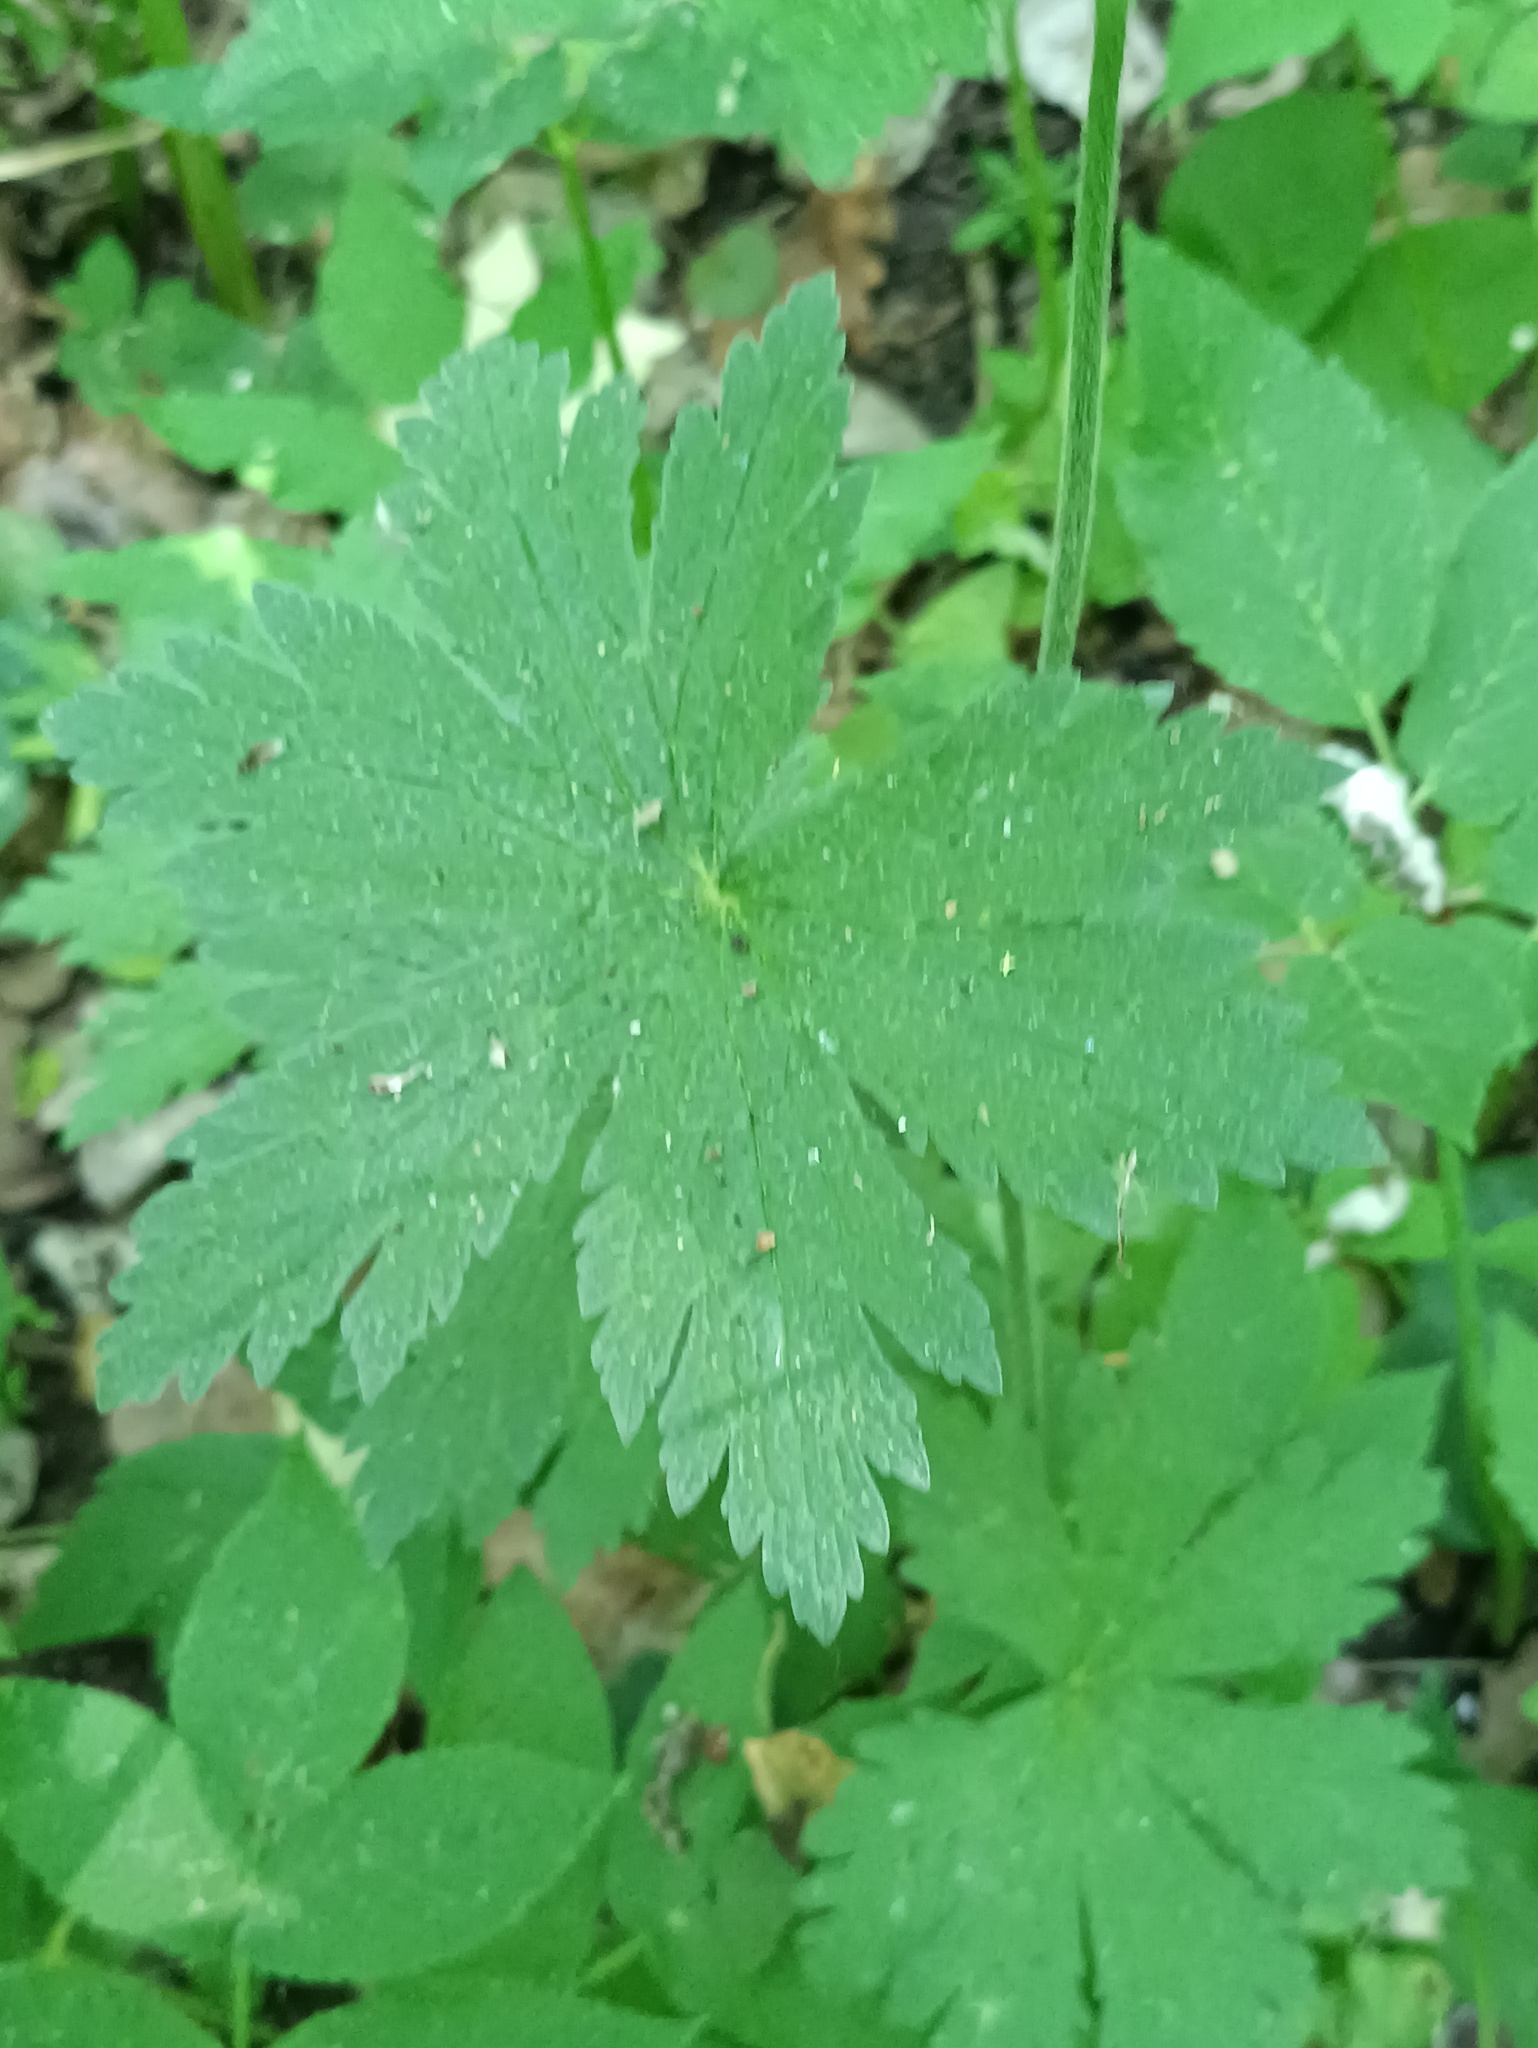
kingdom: Plantae
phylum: Tracheophyta
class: Magnoliopsida
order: Geraniales
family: Geraniaceae
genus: Geranium
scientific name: Geranium sylvaticum
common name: Wood crane's-bill
